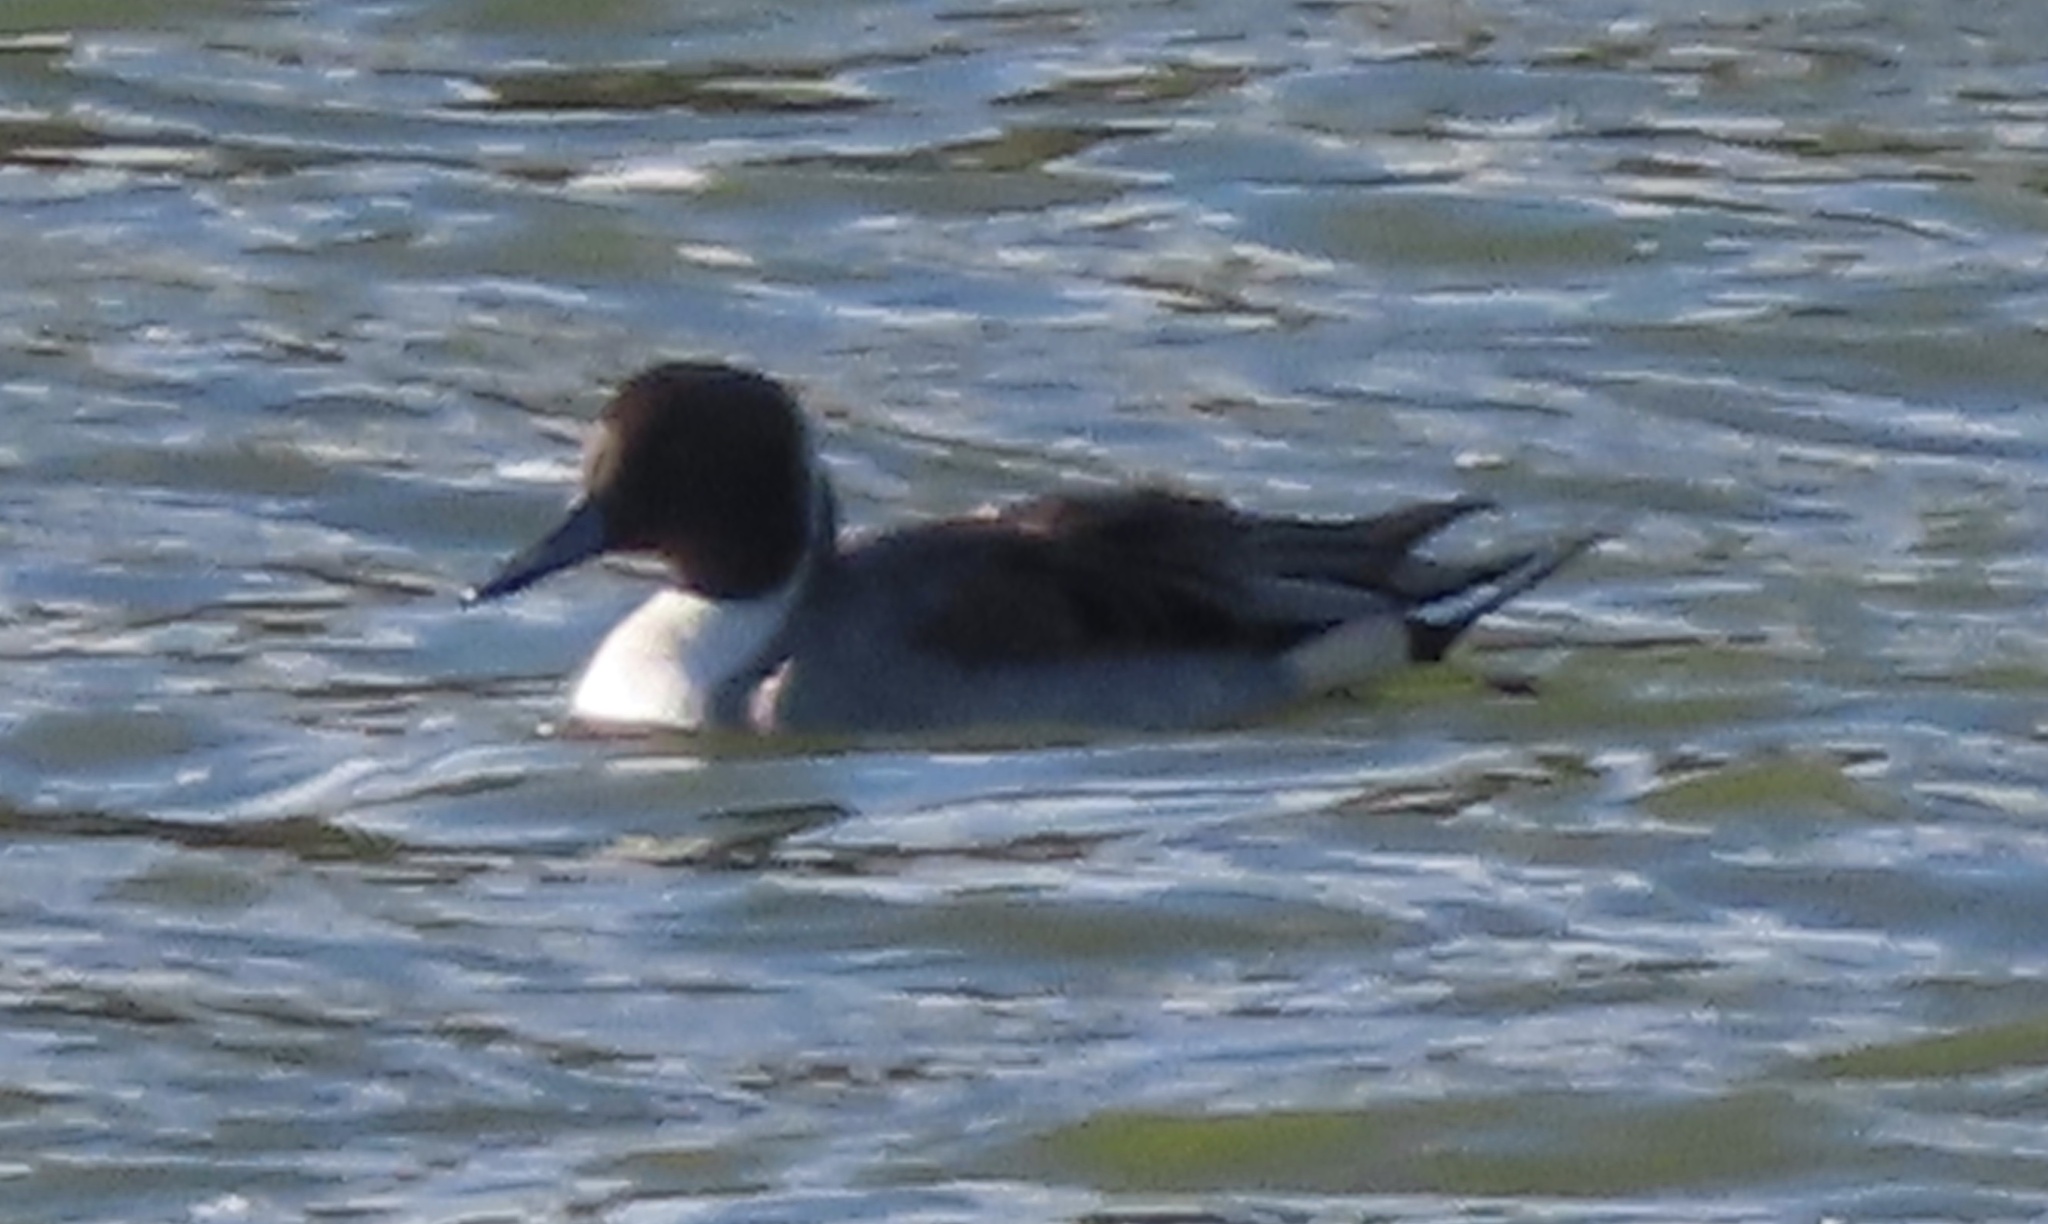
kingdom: Animalia
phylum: Chordata
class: Aves
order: Anseriformes
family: Anatidae
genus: Anas
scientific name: Anas acuta
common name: Northern pintail
